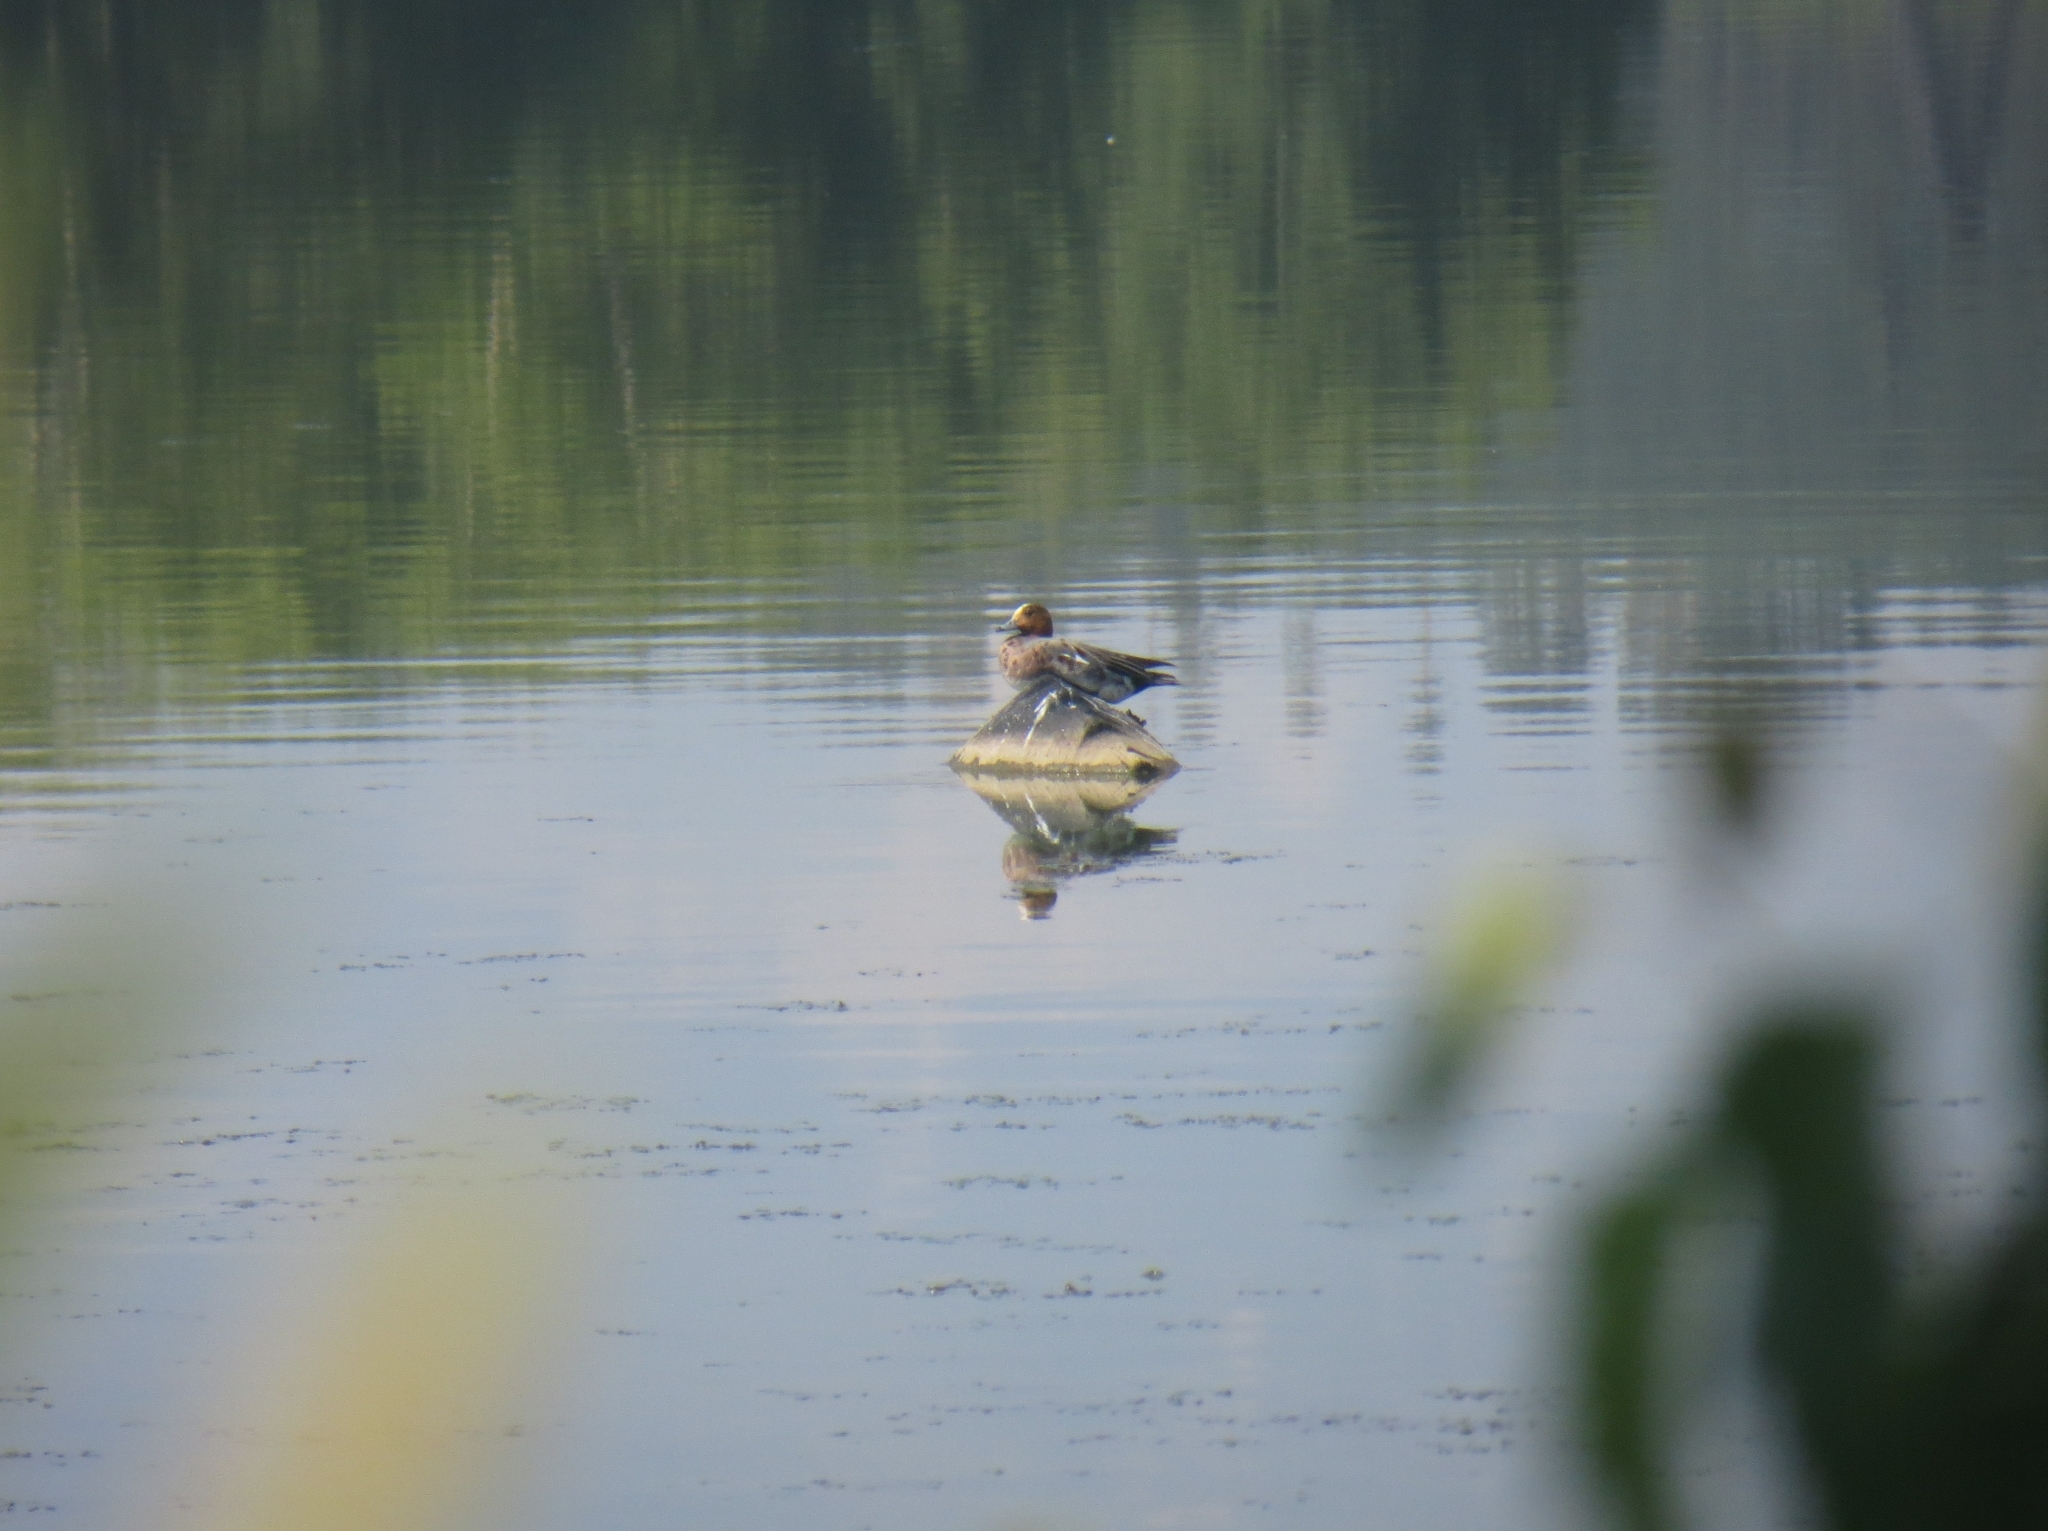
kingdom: Animalia
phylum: Chordata
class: Aves
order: Anseriformes
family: Anatidae
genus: Mareca
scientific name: Mareca penelope
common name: Eurasian wigeon
